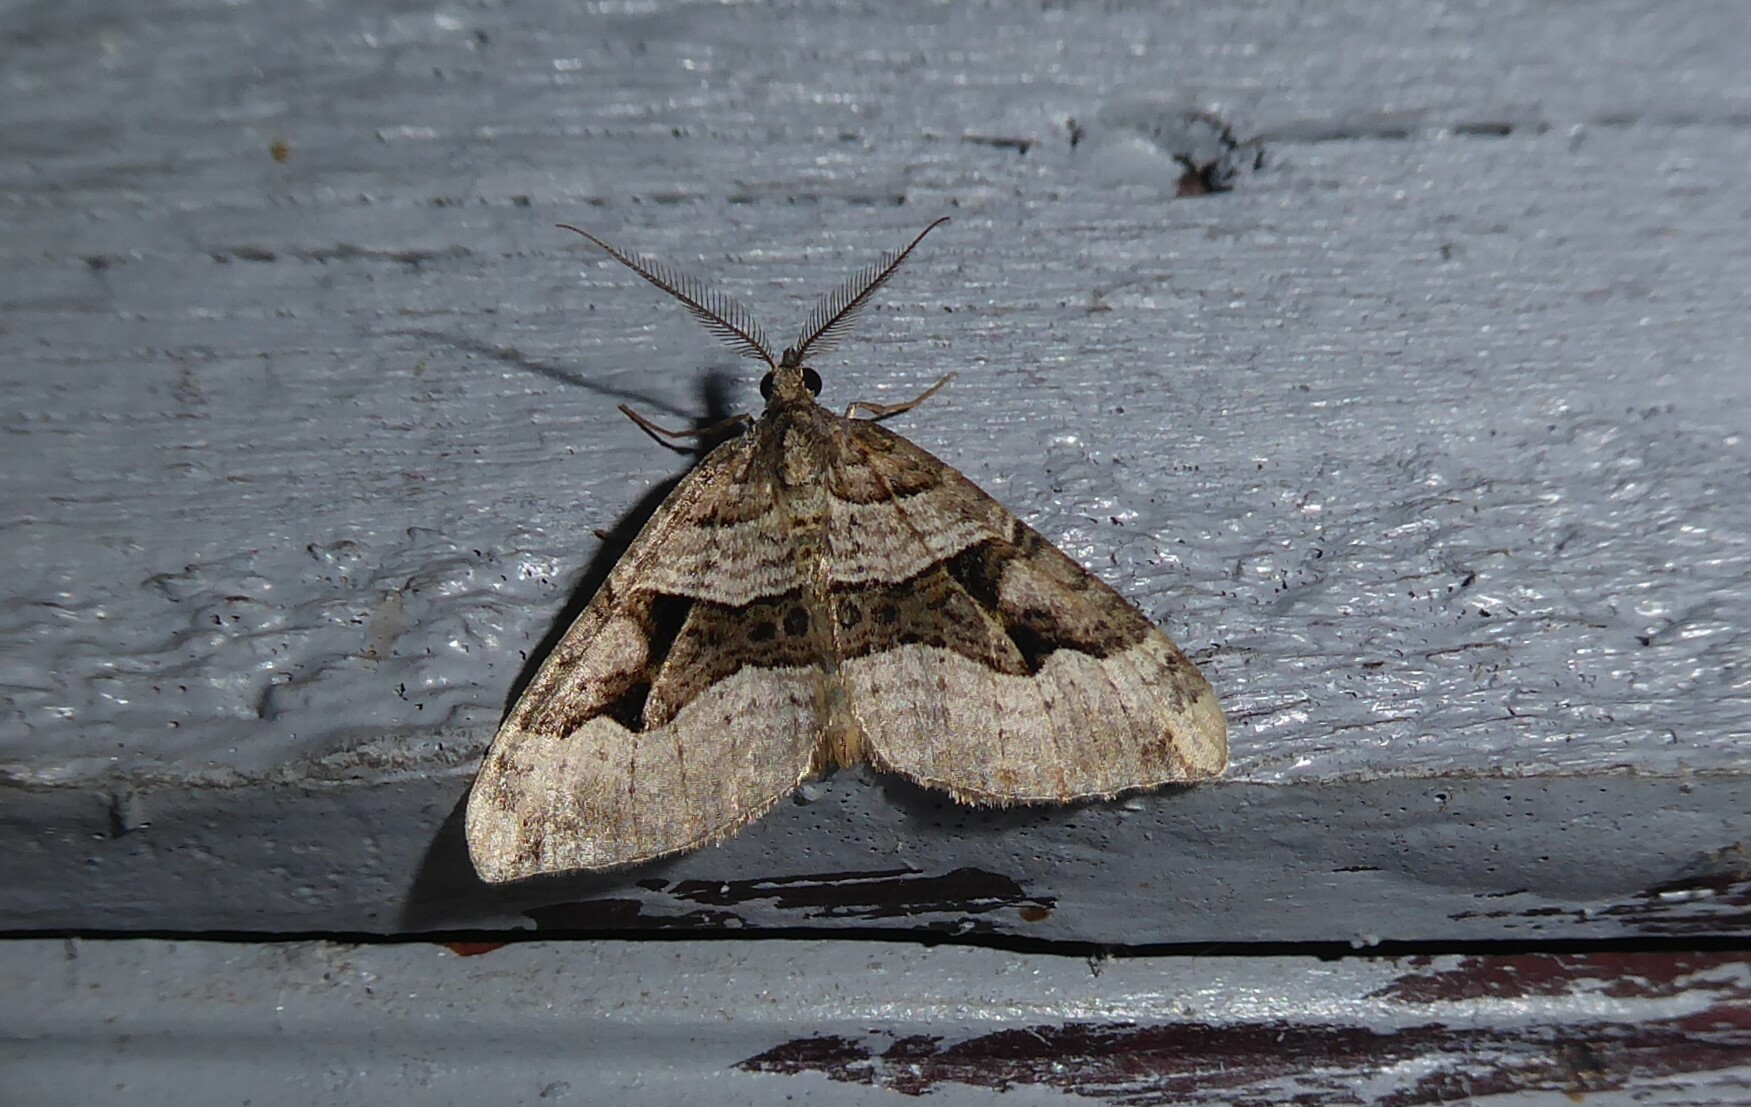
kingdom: Animalia
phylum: Arthropoda
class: Insecta
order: Lepidoptera
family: Geometridae
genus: Xanthorhoe
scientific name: Xanthorhoe semifissata
